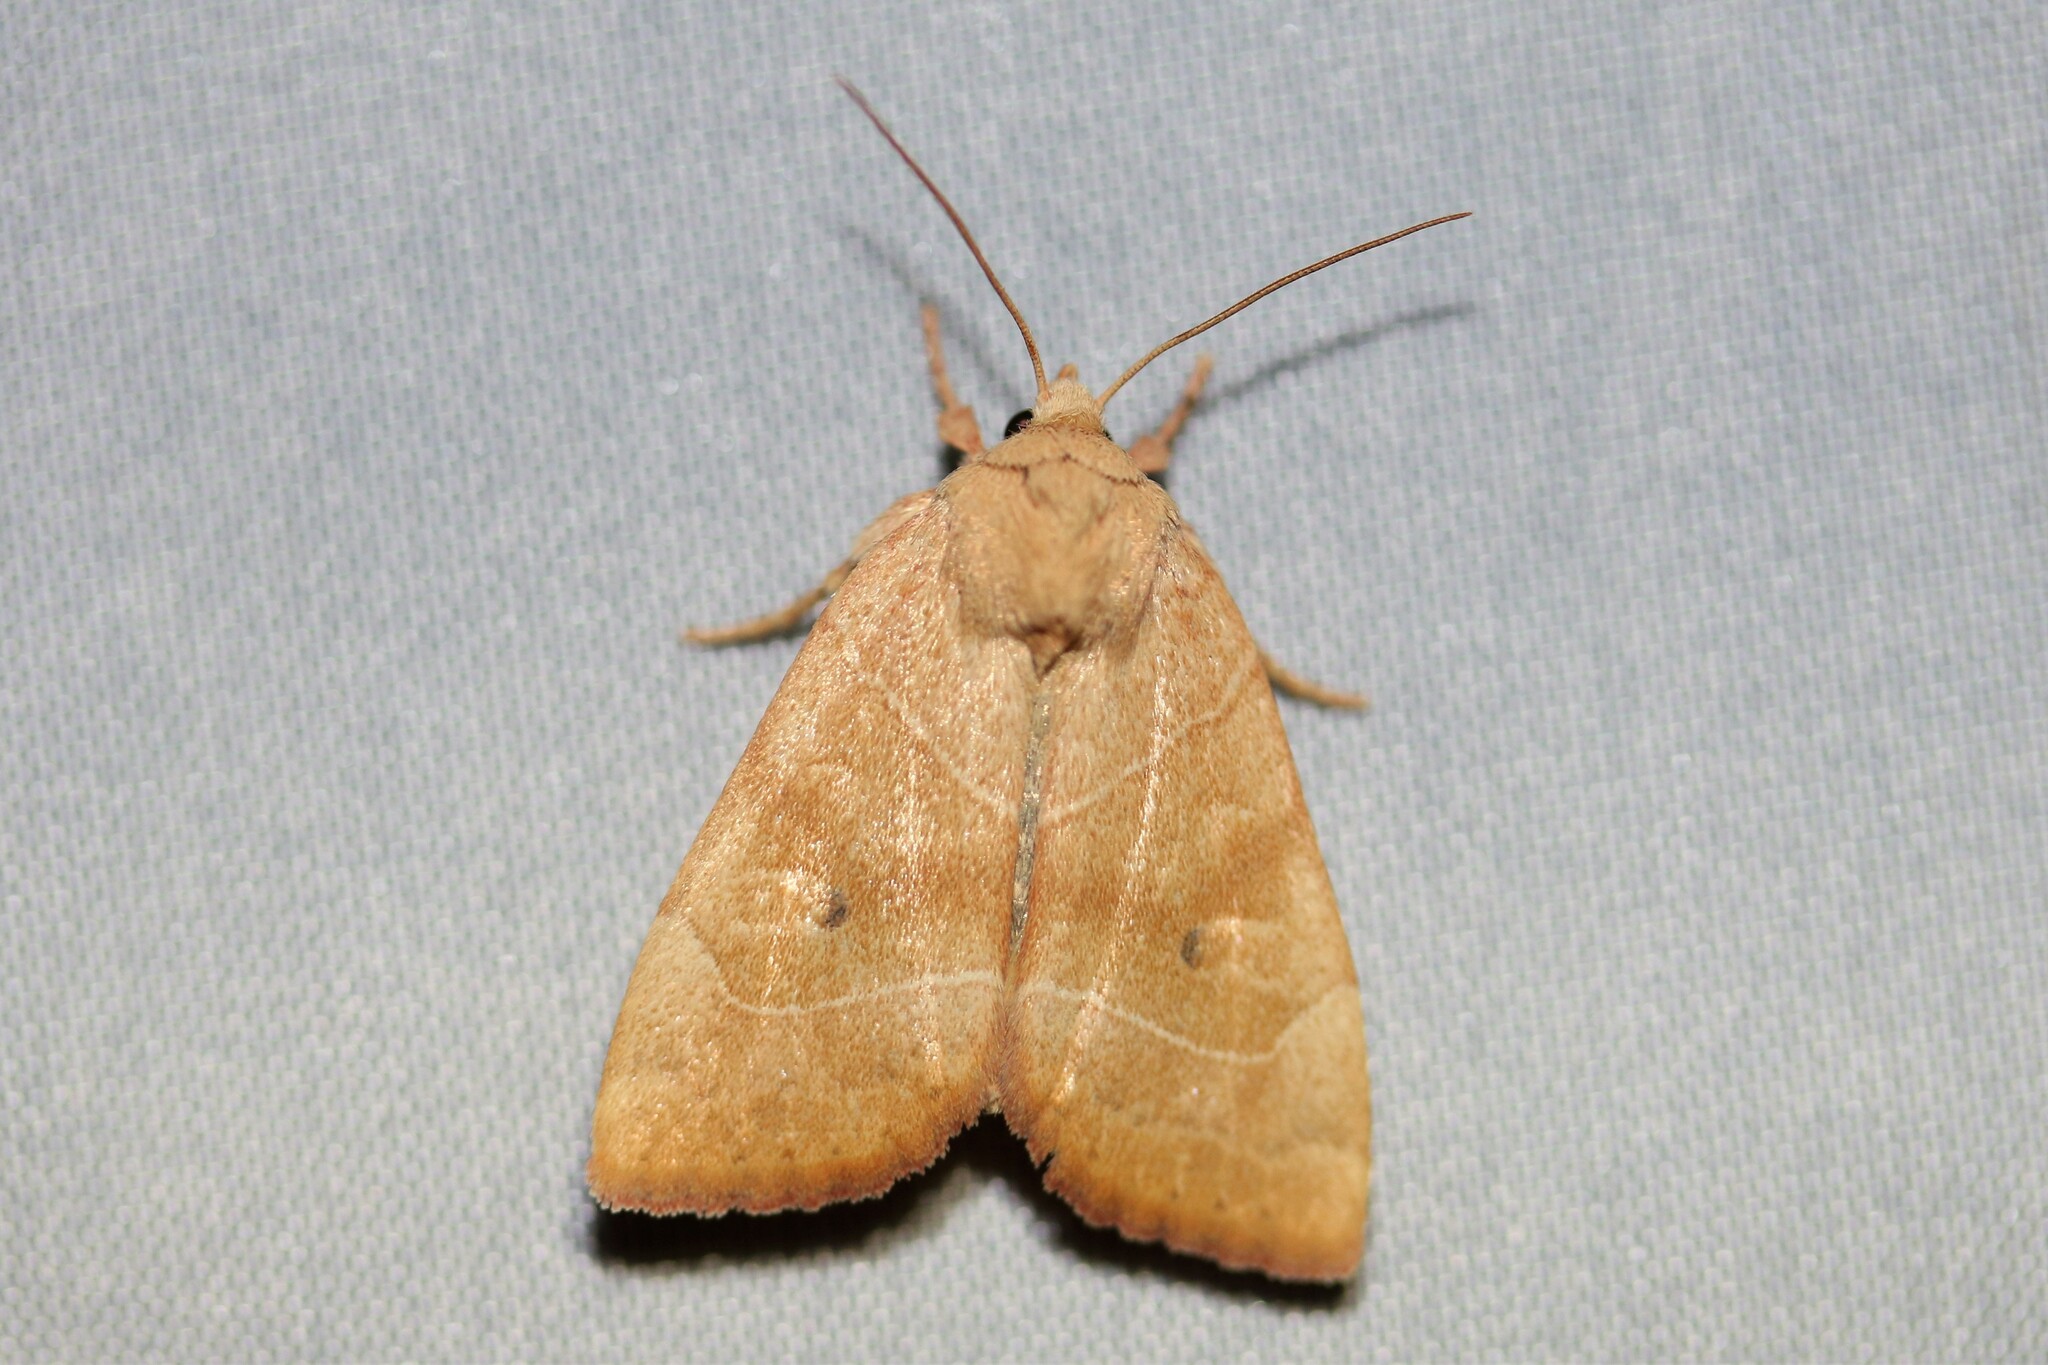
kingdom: Animalia
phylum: Arthropoda
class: Insecta
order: Lepidoptera
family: Noctuidae
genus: Cosmia
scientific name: Cosmia trapezina
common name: Dun-bar
